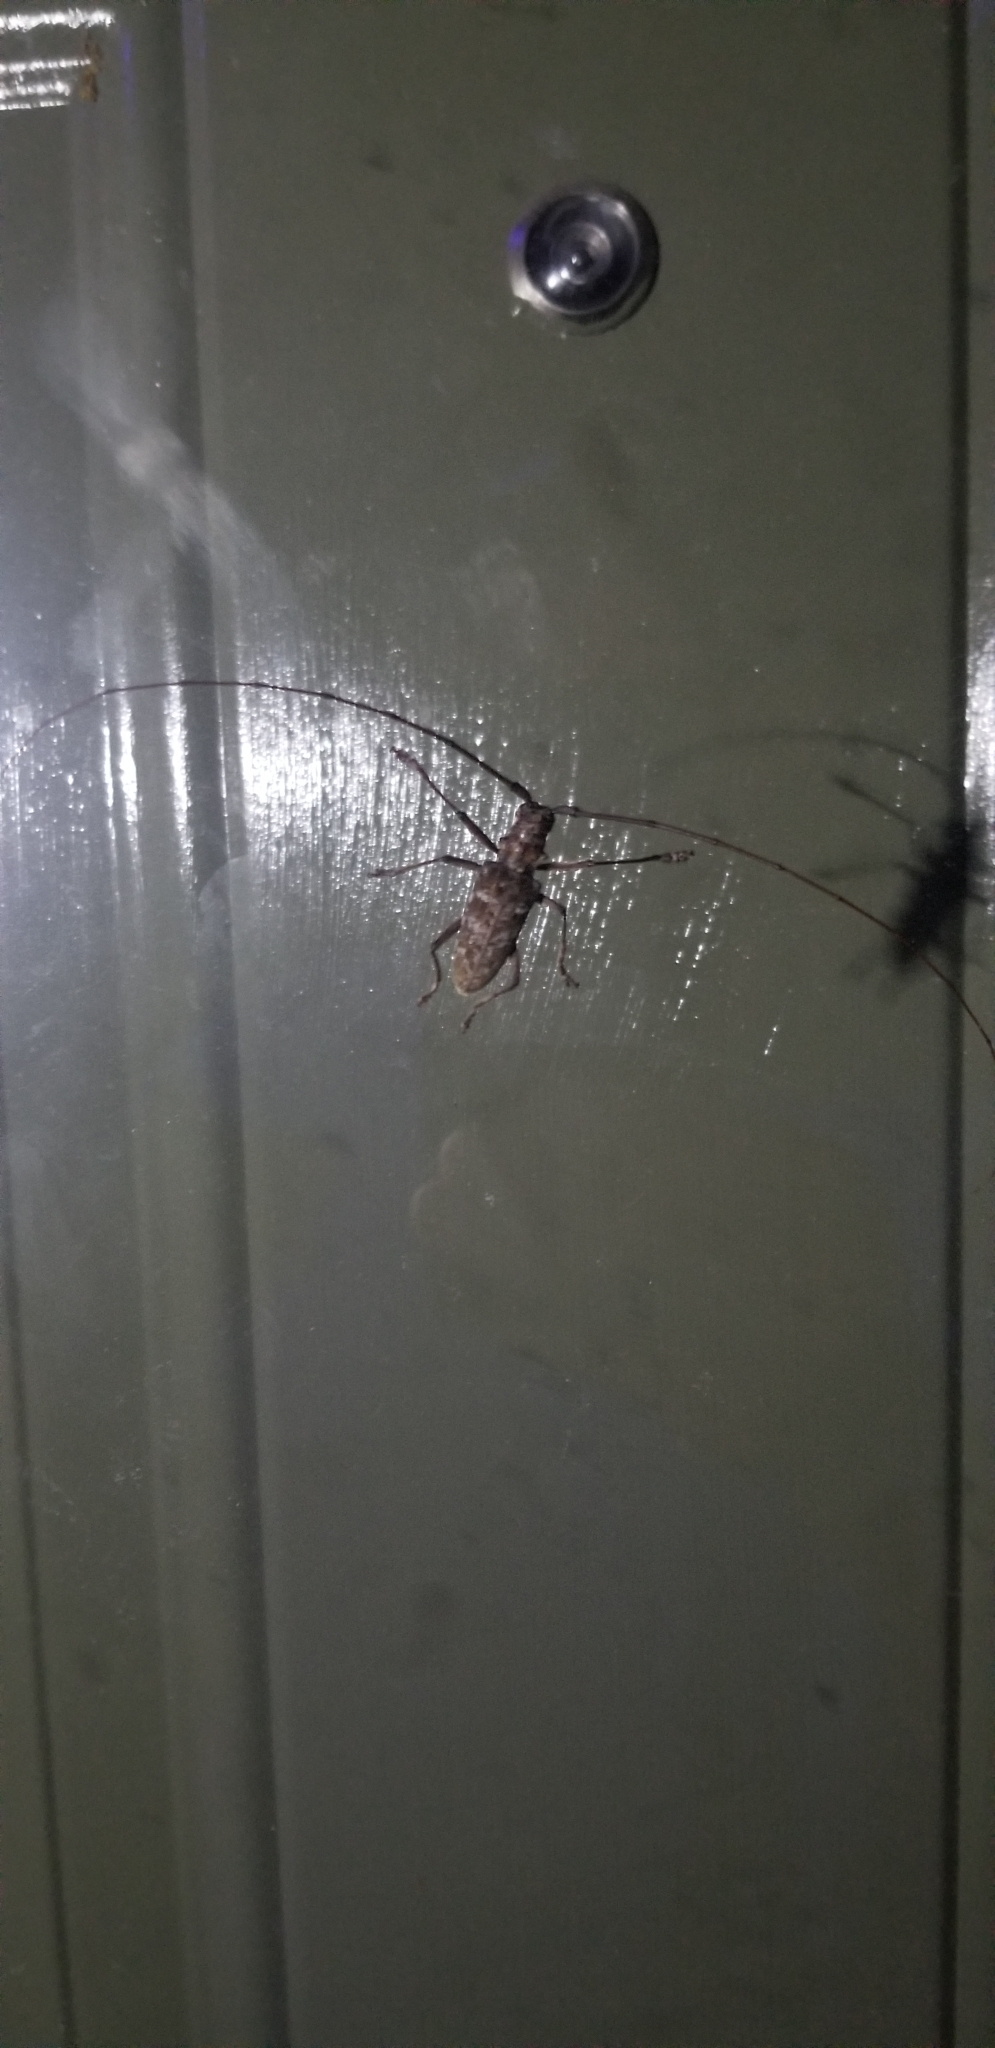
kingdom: Animalia
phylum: Arthropoda
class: Insecta
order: Coleoptera
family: Cerambycidae
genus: Monochamus
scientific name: Monochamus carolinensis
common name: Carolina pine sawyer
